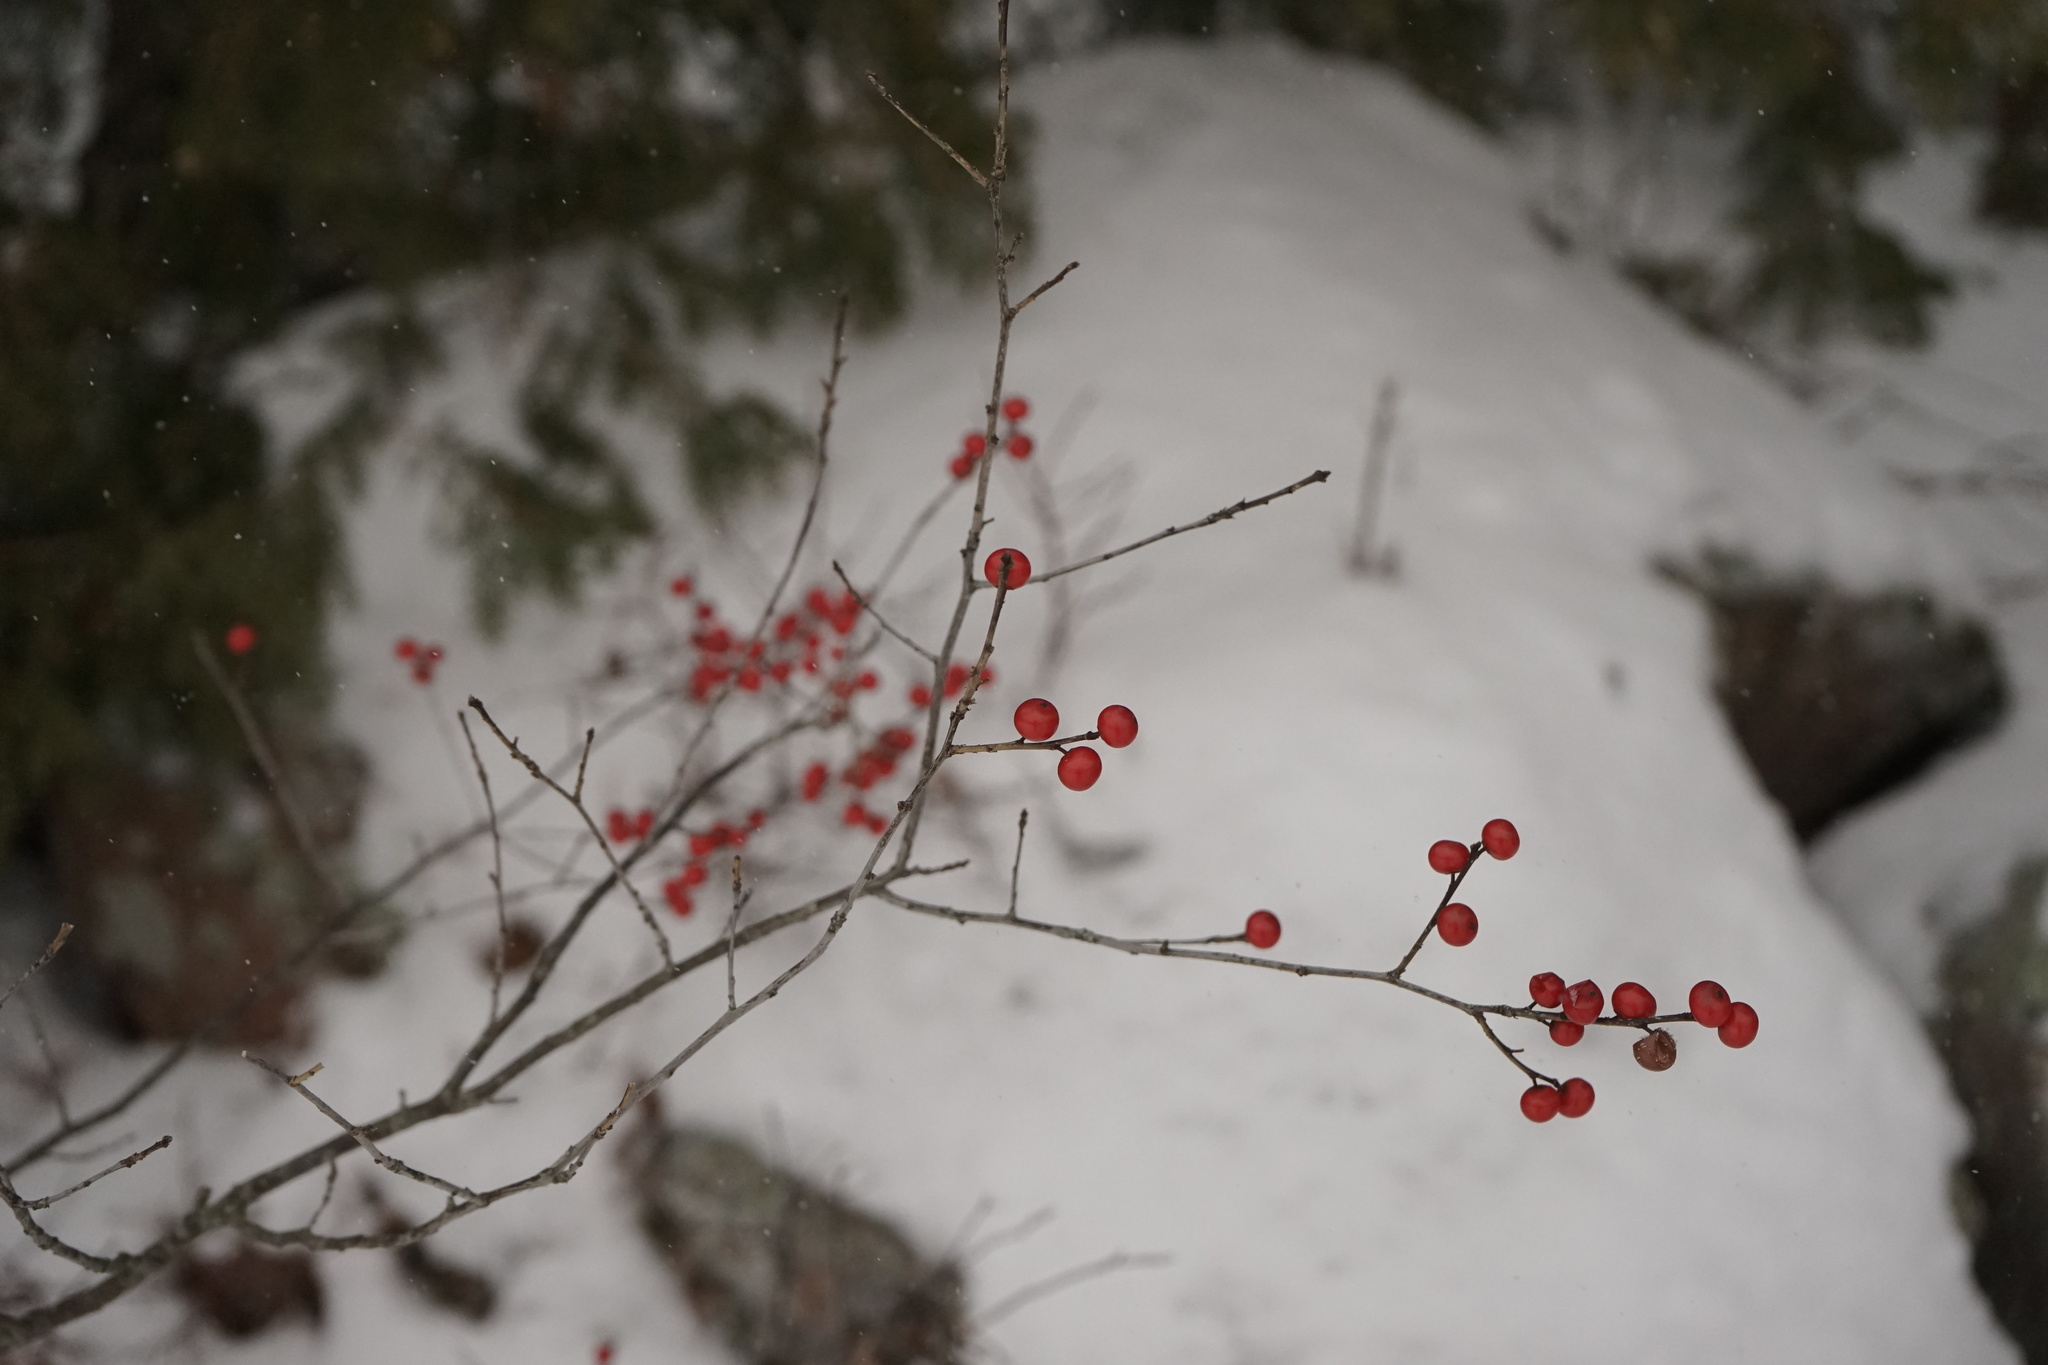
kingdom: Plantae
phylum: Tracheophyta
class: Magnoliopsida
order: Aquifoliales
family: Aquifoliaceae
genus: Ilex
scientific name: Ilex verticillata
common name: Virginia winterberry
